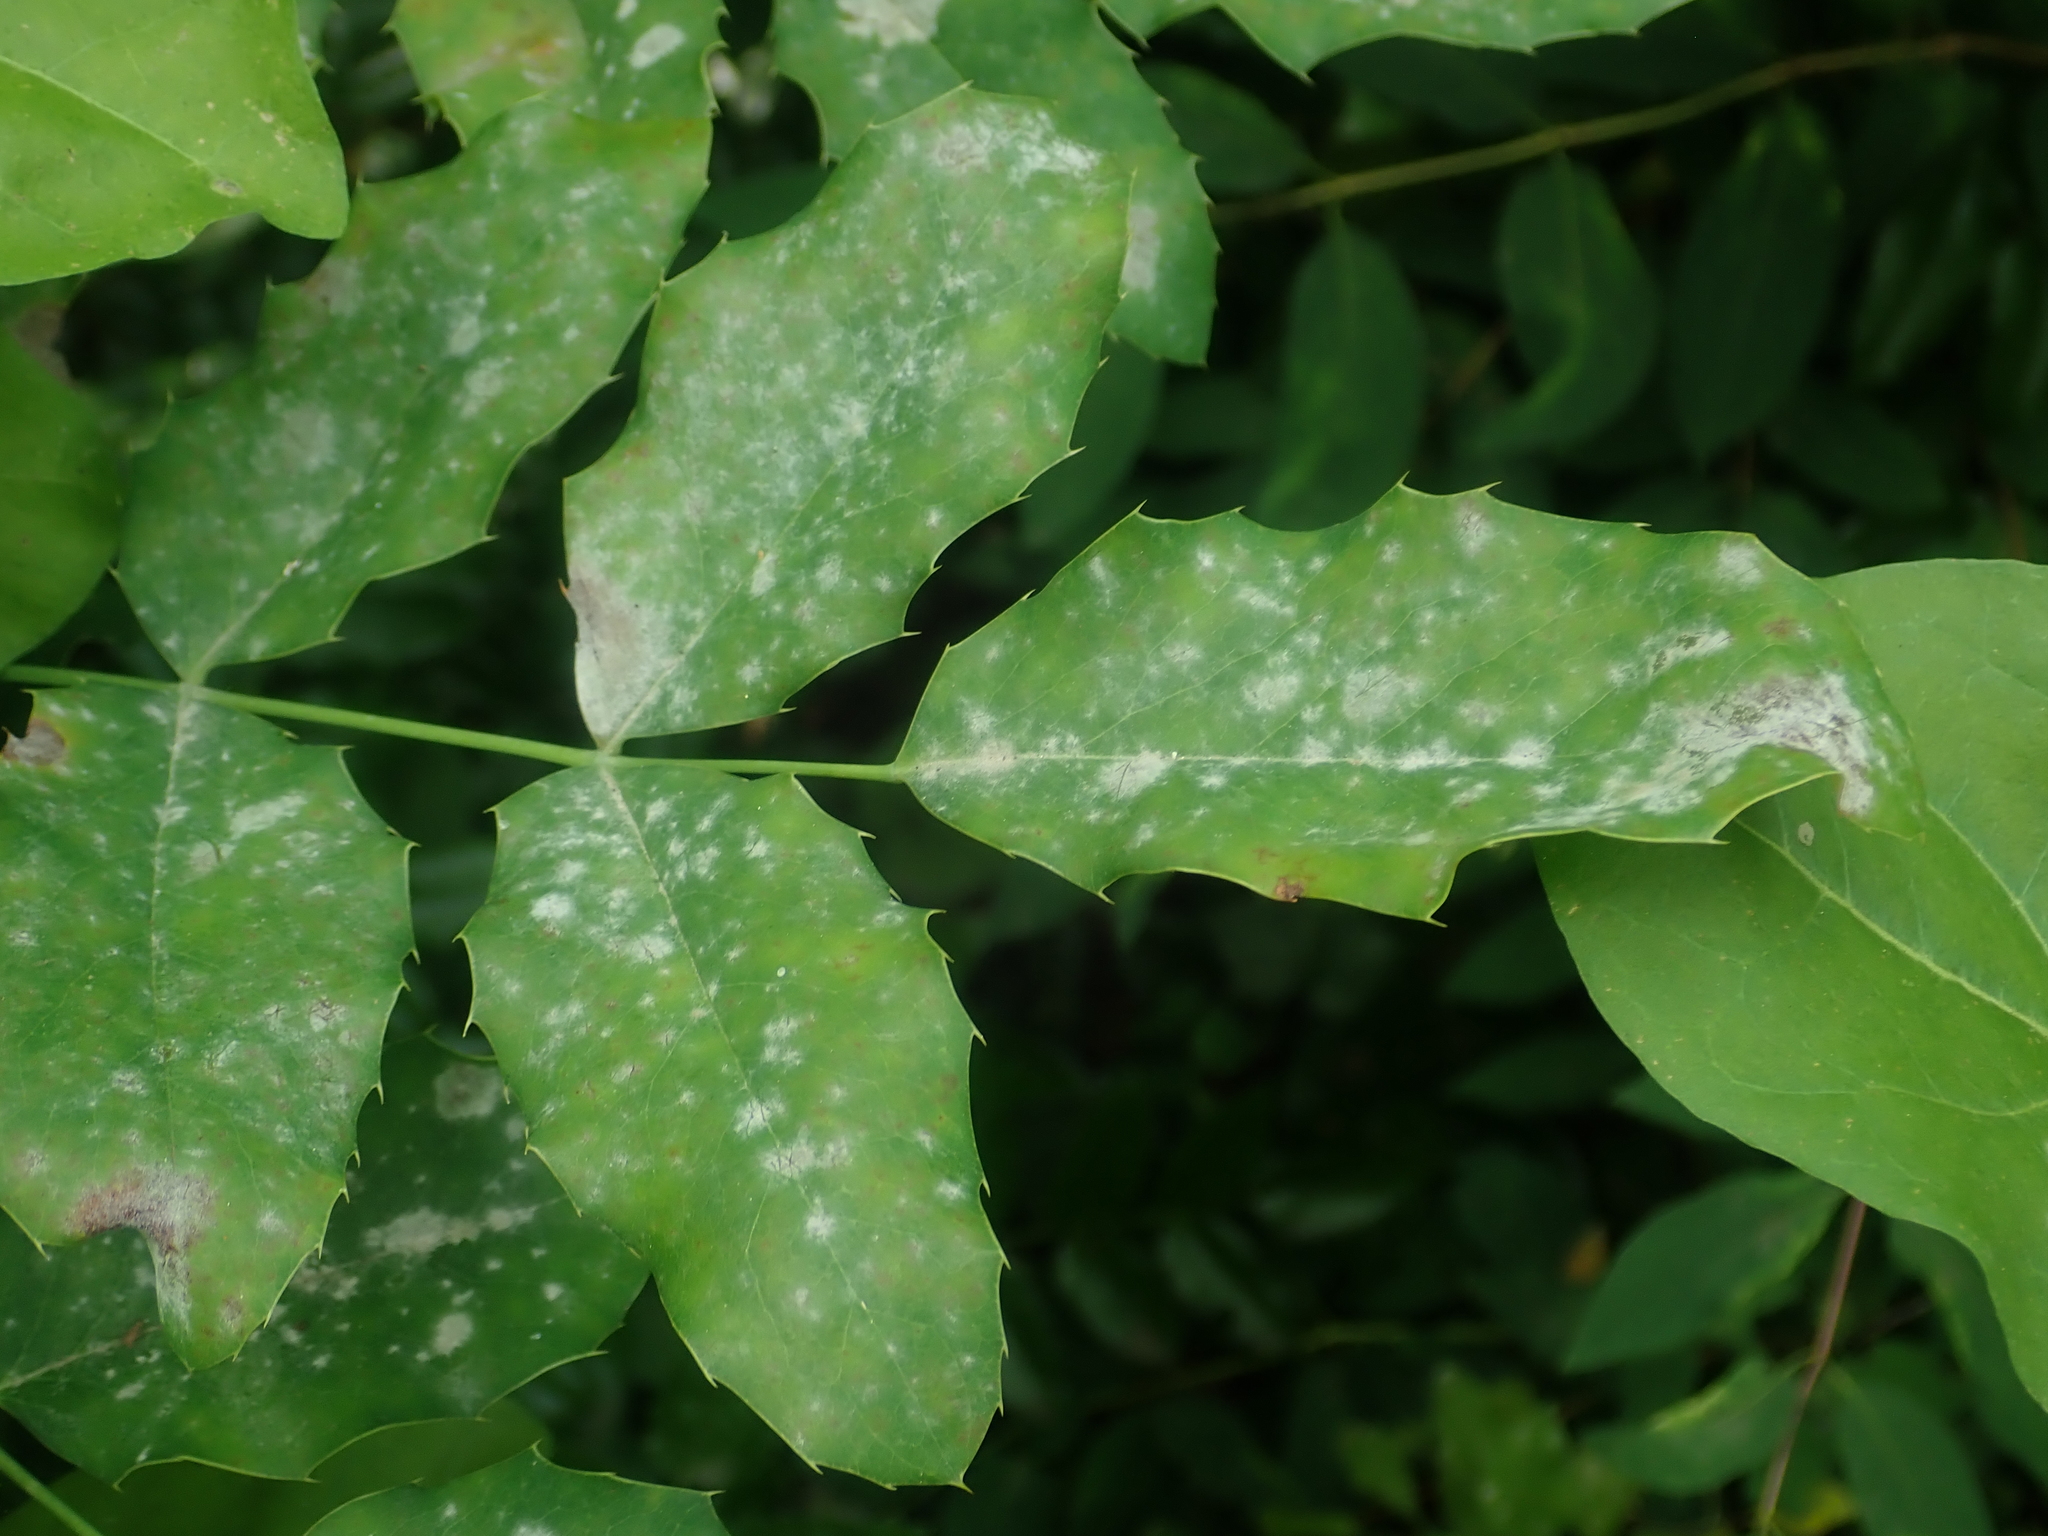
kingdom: Fungi
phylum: Ascomycota
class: Leotiomycetes
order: Helotiales
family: Erysiphaceae
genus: Erysiphe
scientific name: Erysiphe berberidis
